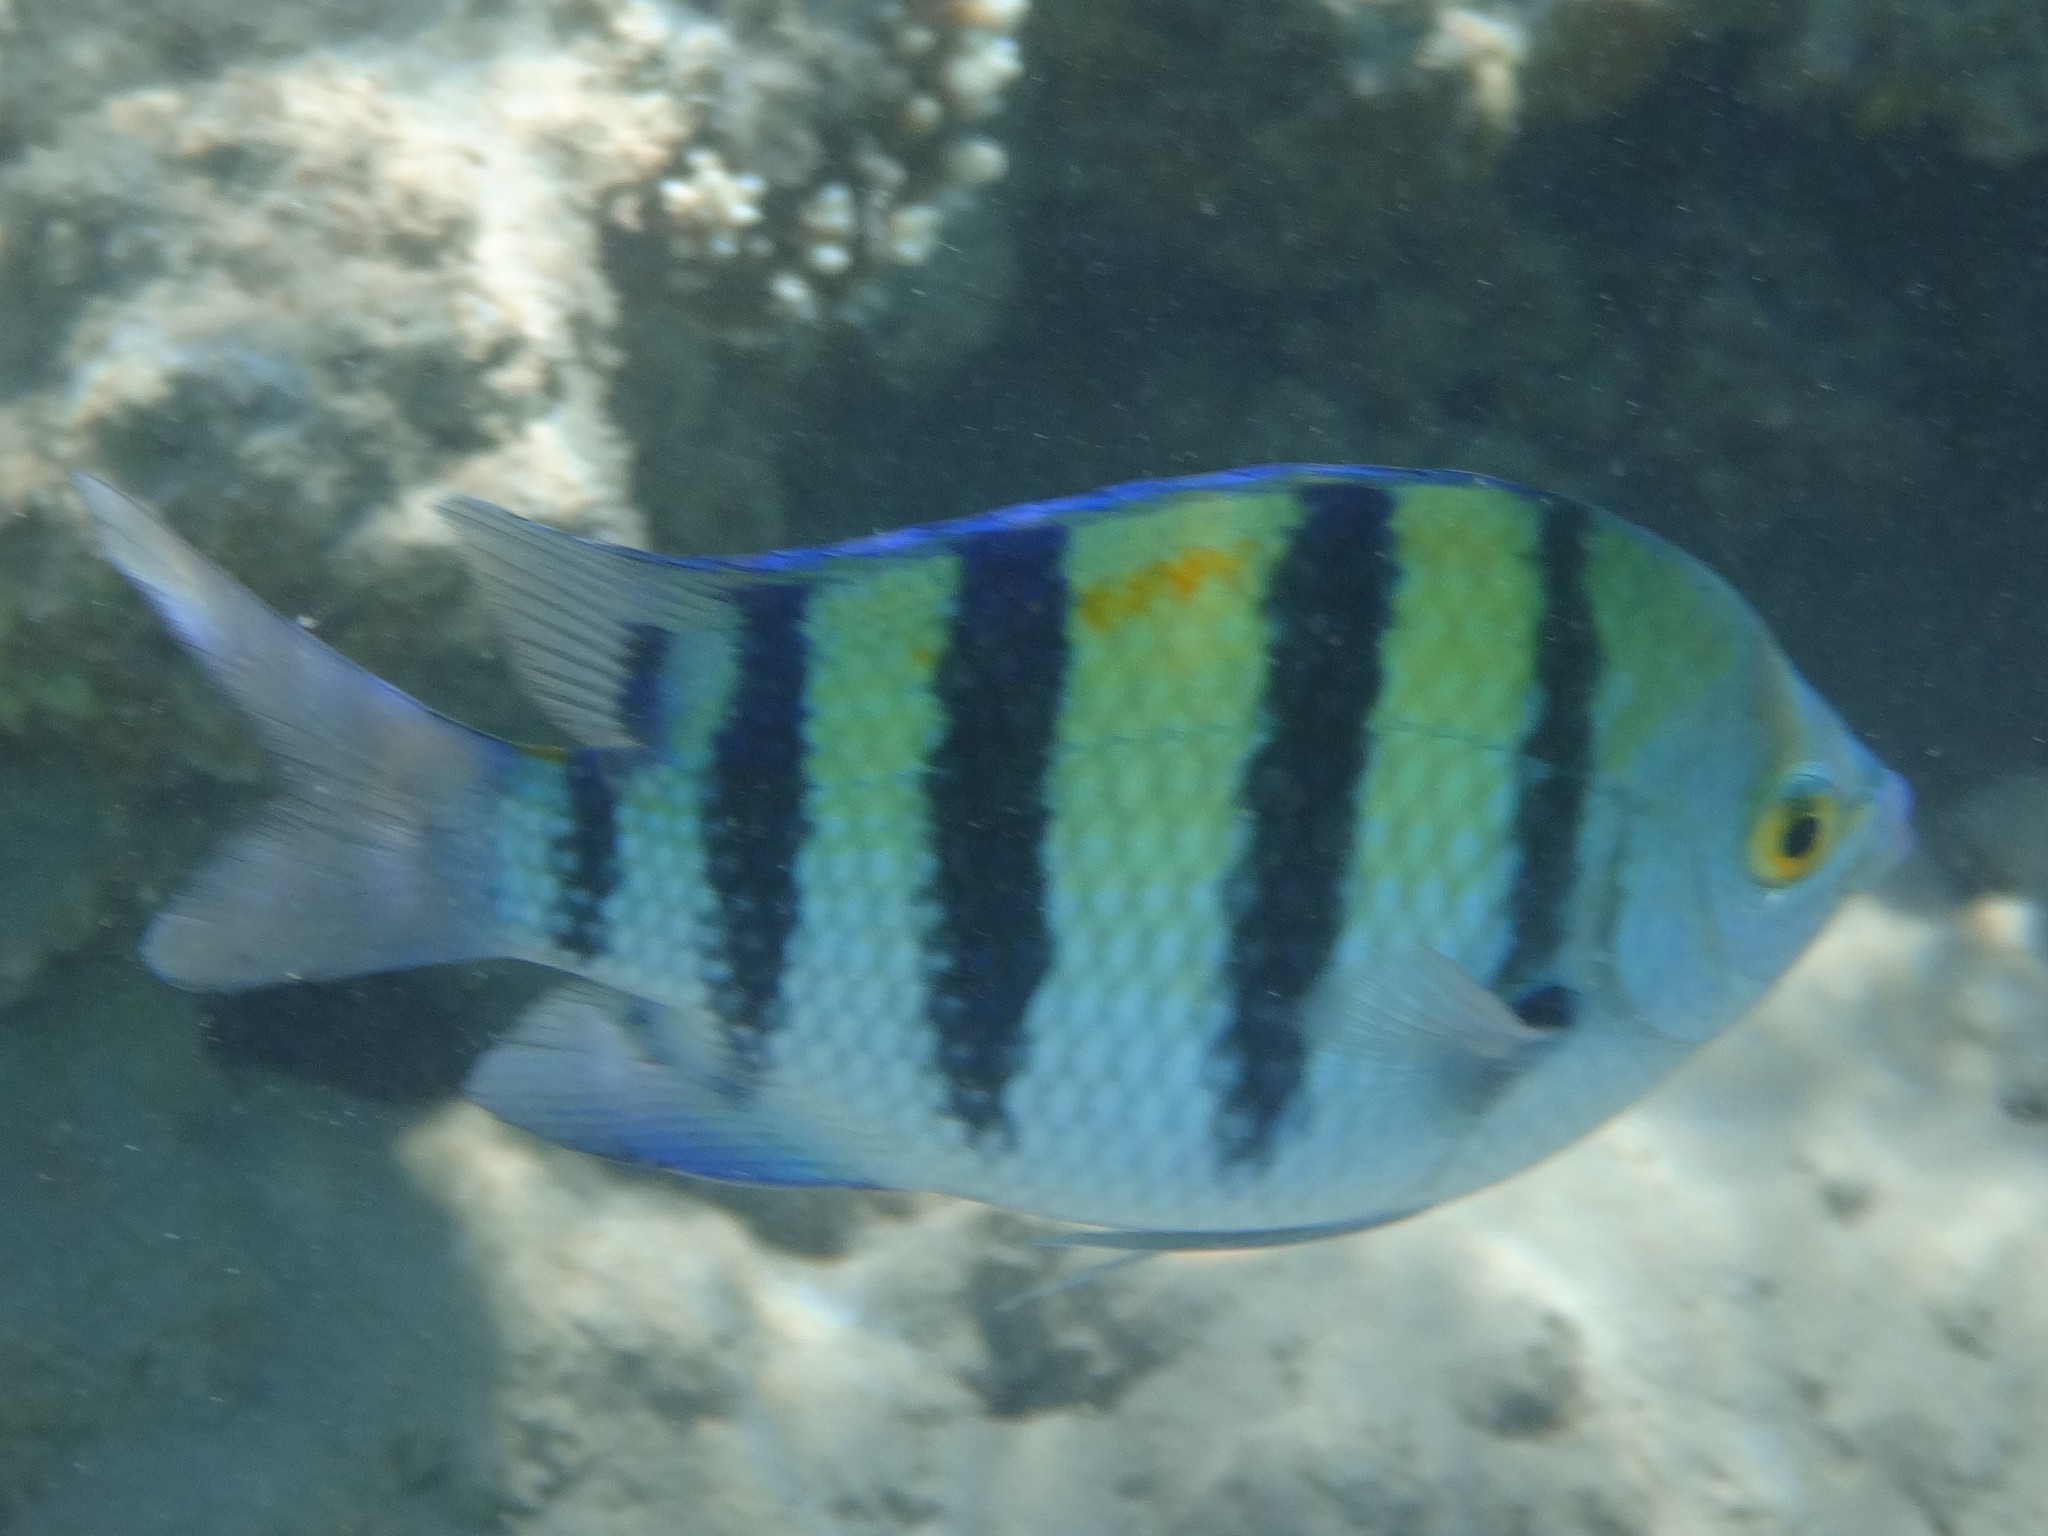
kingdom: Animalia
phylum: Chordata
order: Perciformes
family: Pomacentridae
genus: Abudefduf
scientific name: Abudefduf vaigiensis
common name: Indo-pacific sergeant
